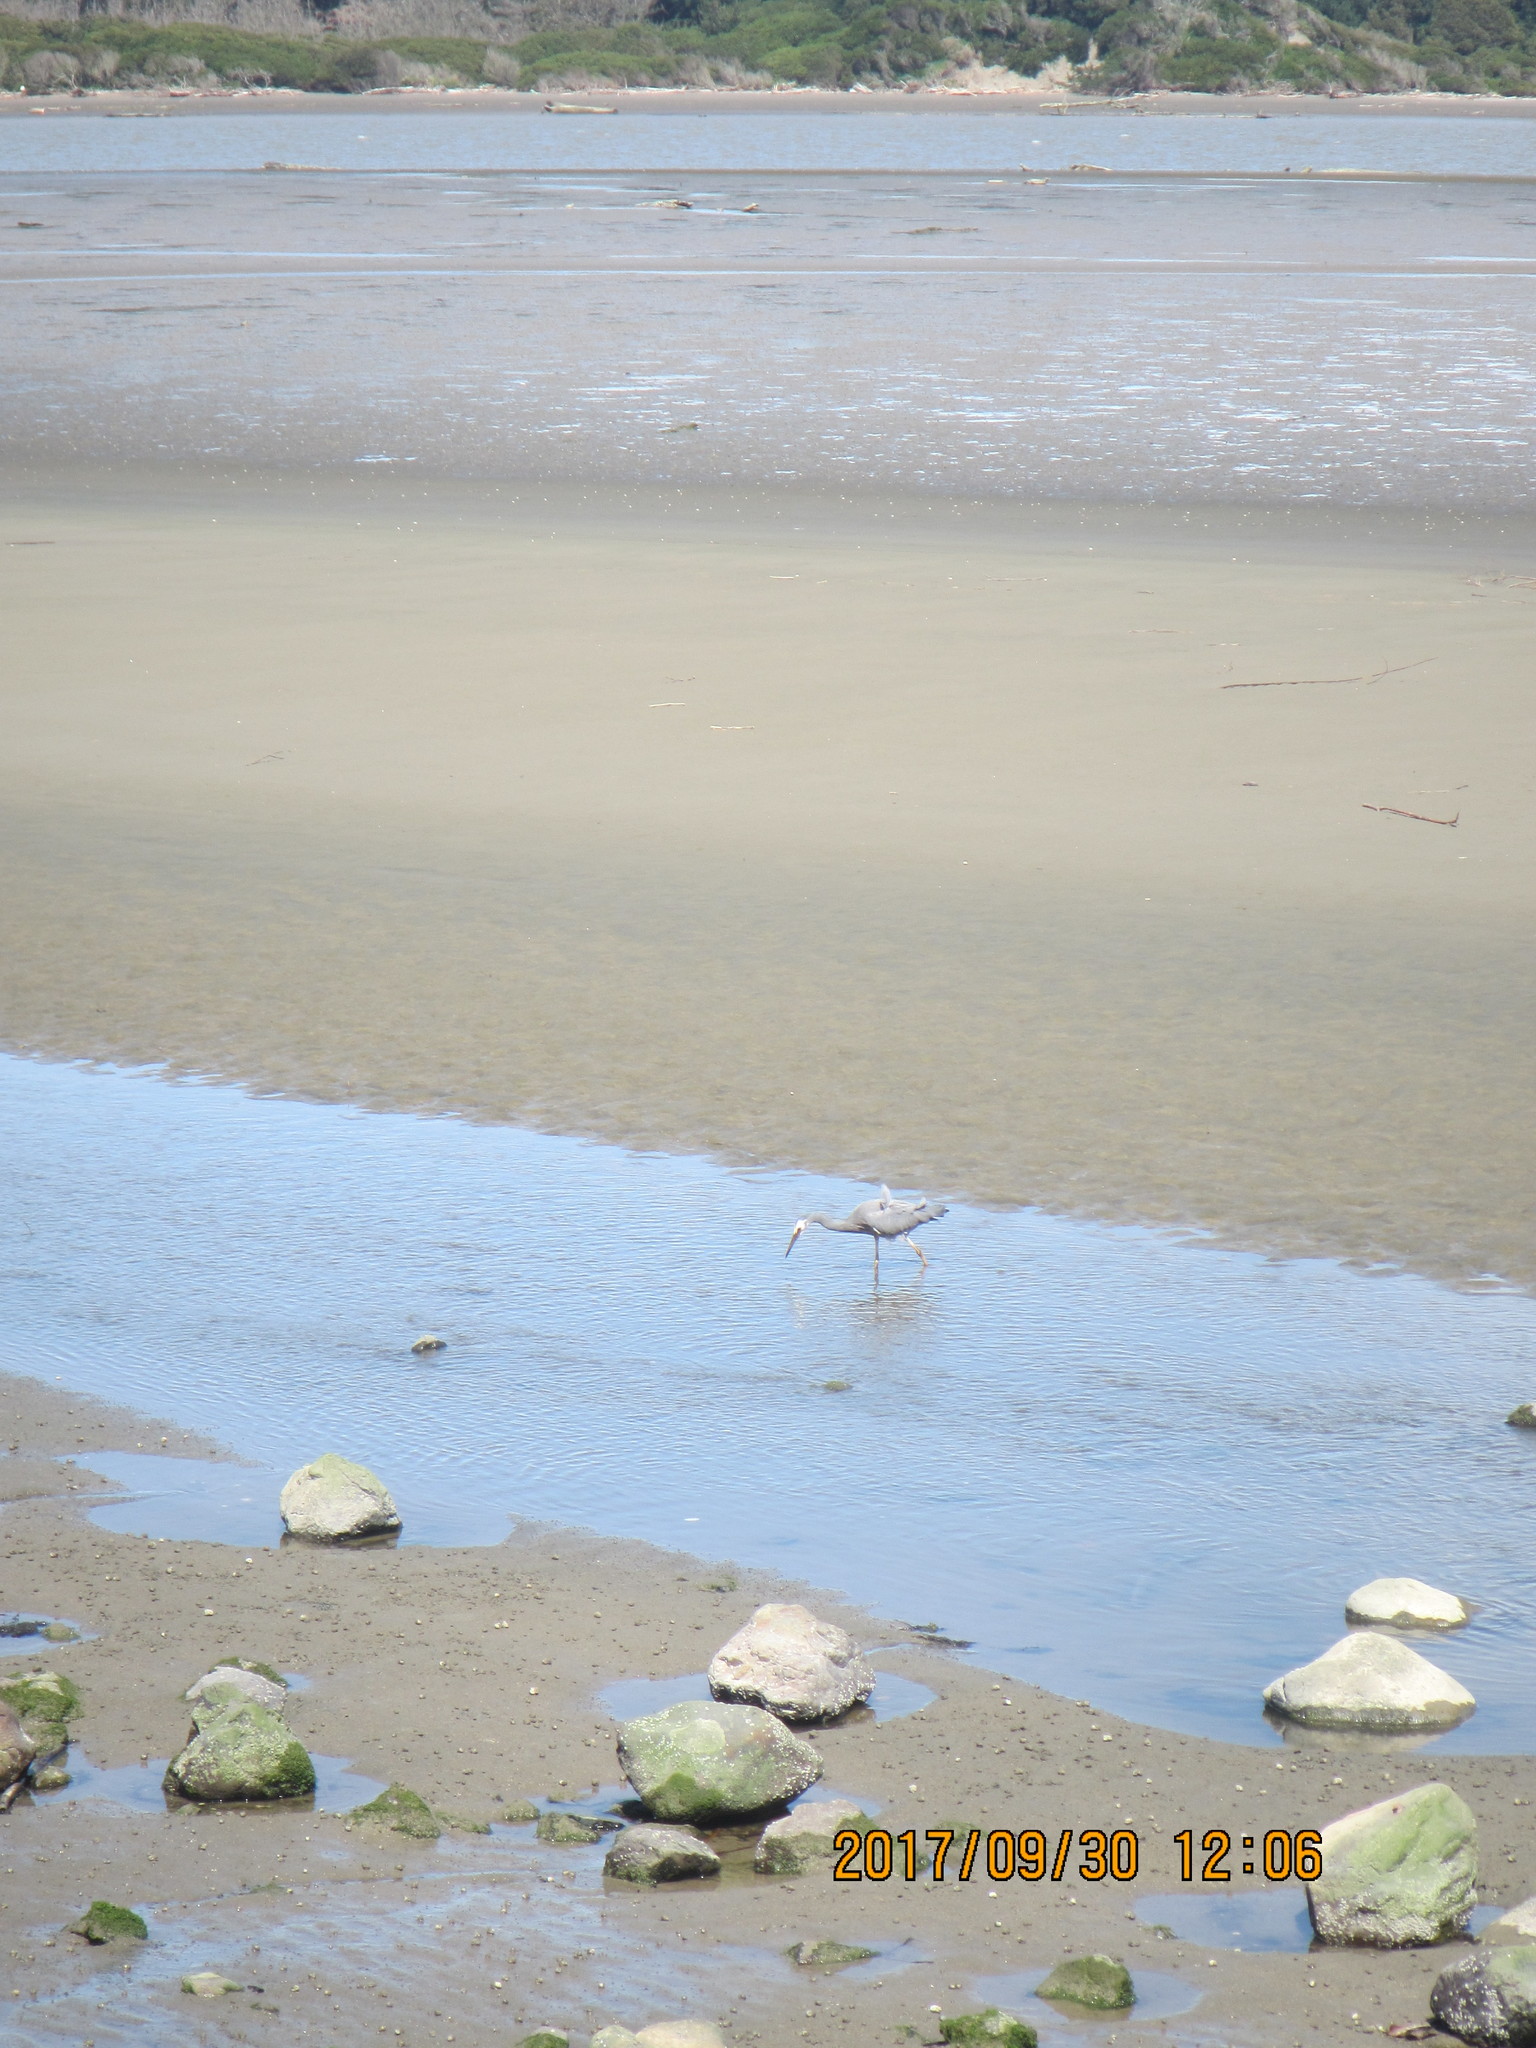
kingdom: Animalia
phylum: Chordata
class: Aves
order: Pelecaniformes
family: Ardeidae
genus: Egretta
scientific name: Egretta novaehollandiae
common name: White-faced heron
